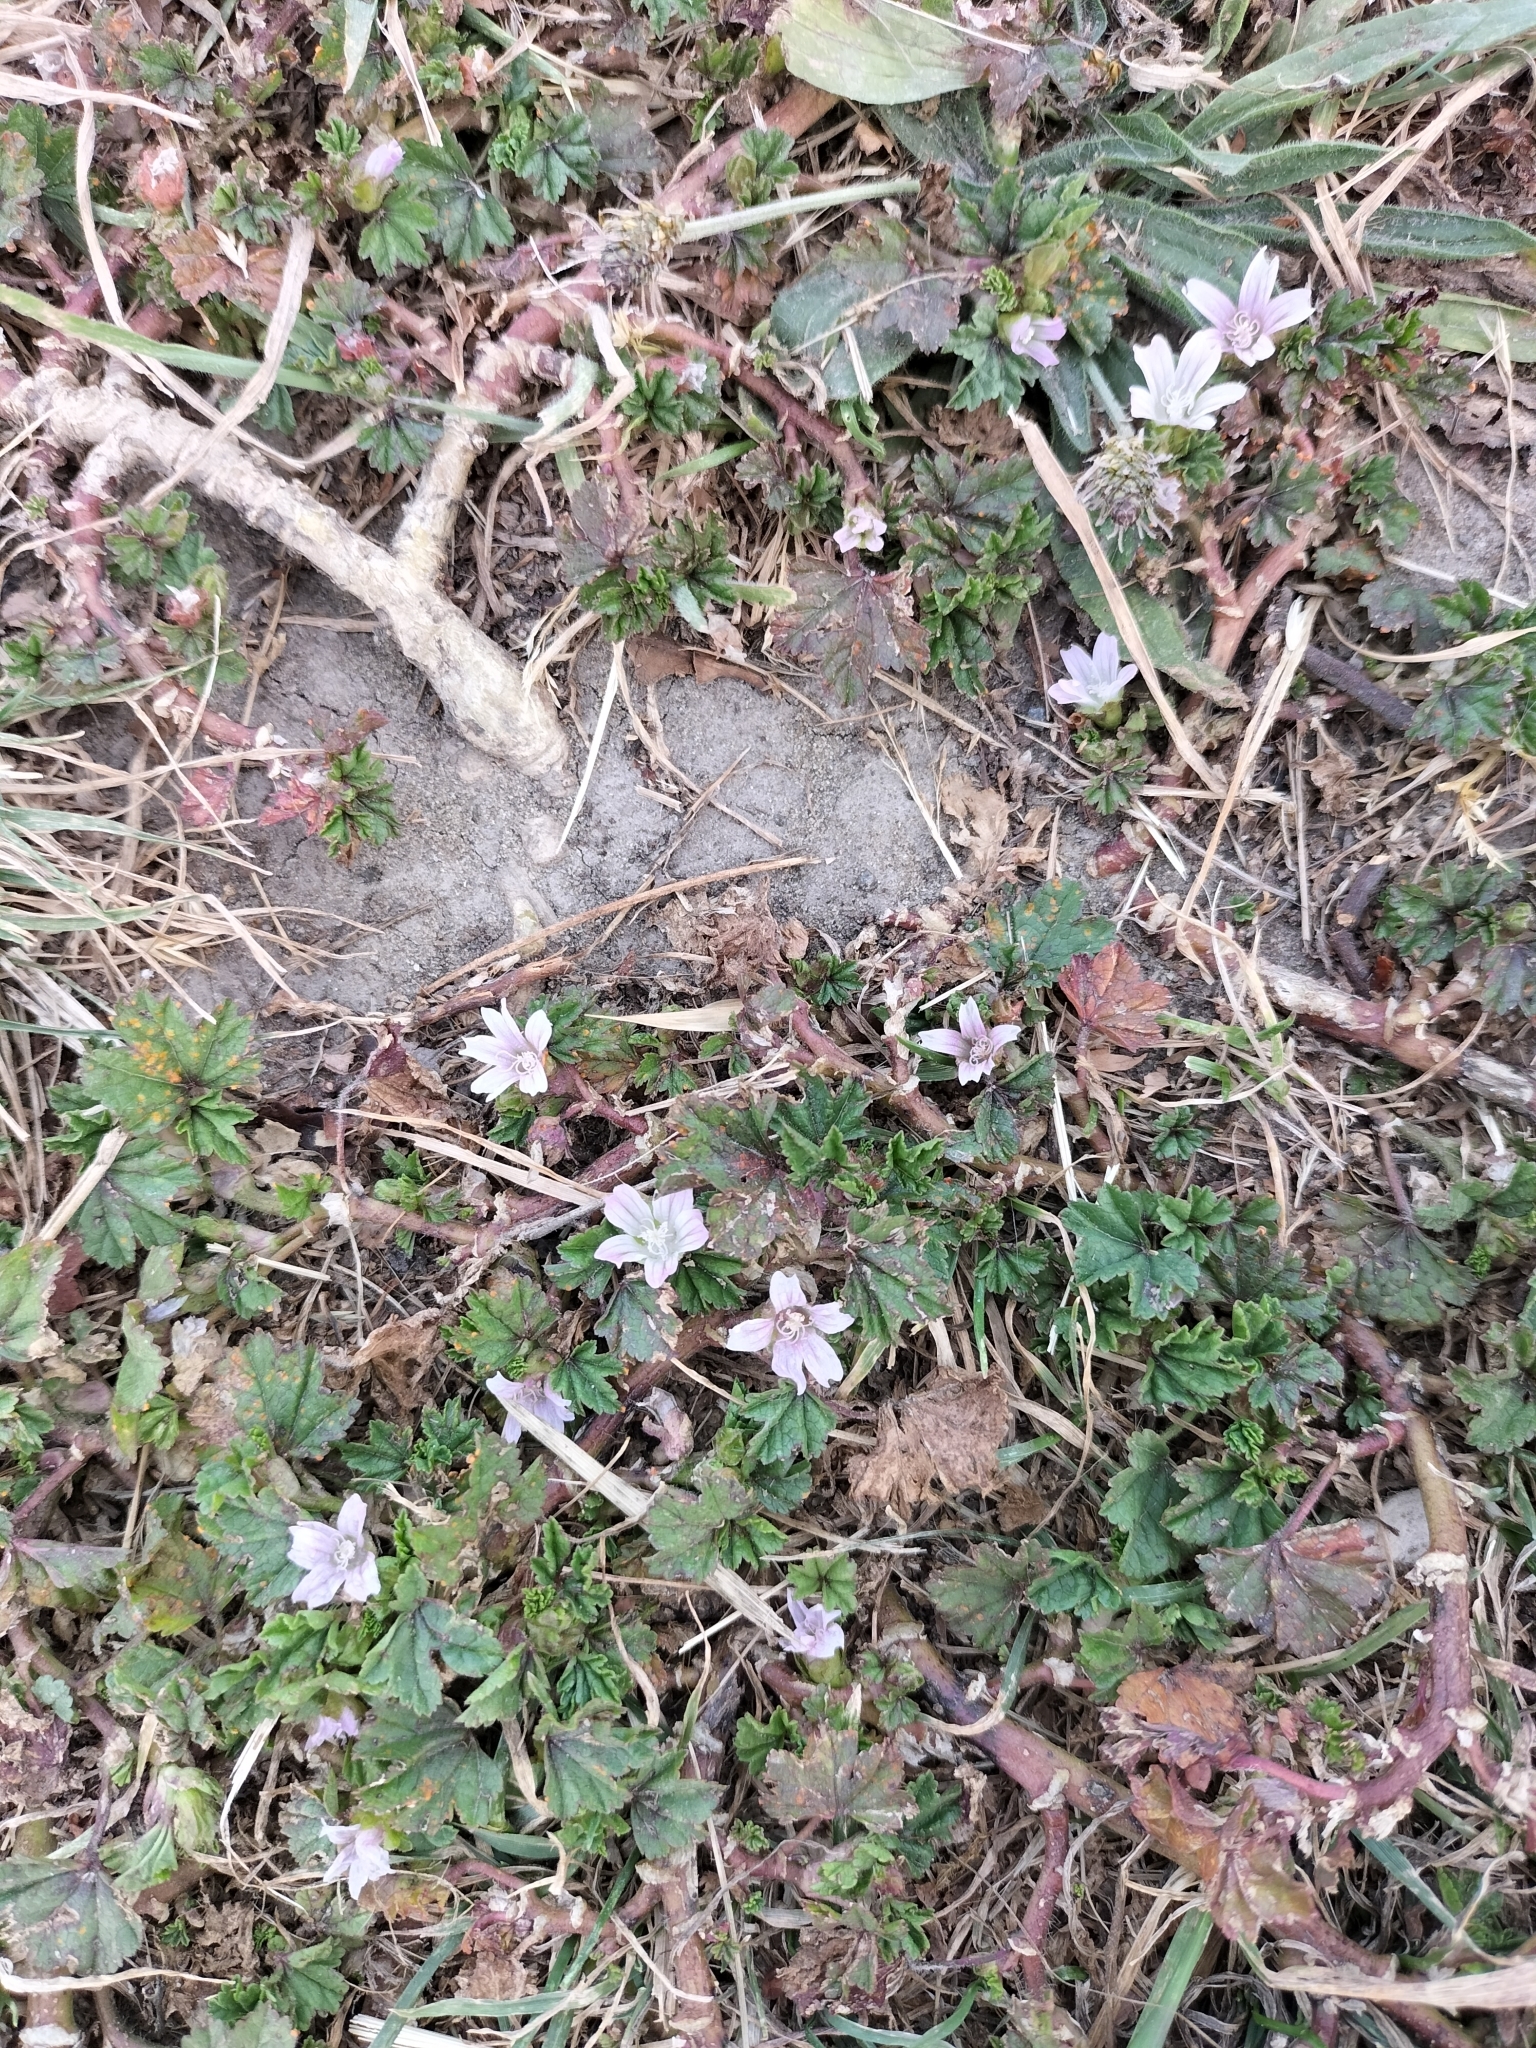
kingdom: Plantae
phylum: Tracheophyta
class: Magnoliopsida
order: Malvales
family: Malvaceae
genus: Malva
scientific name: Malva neglecta
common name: Common mallow
